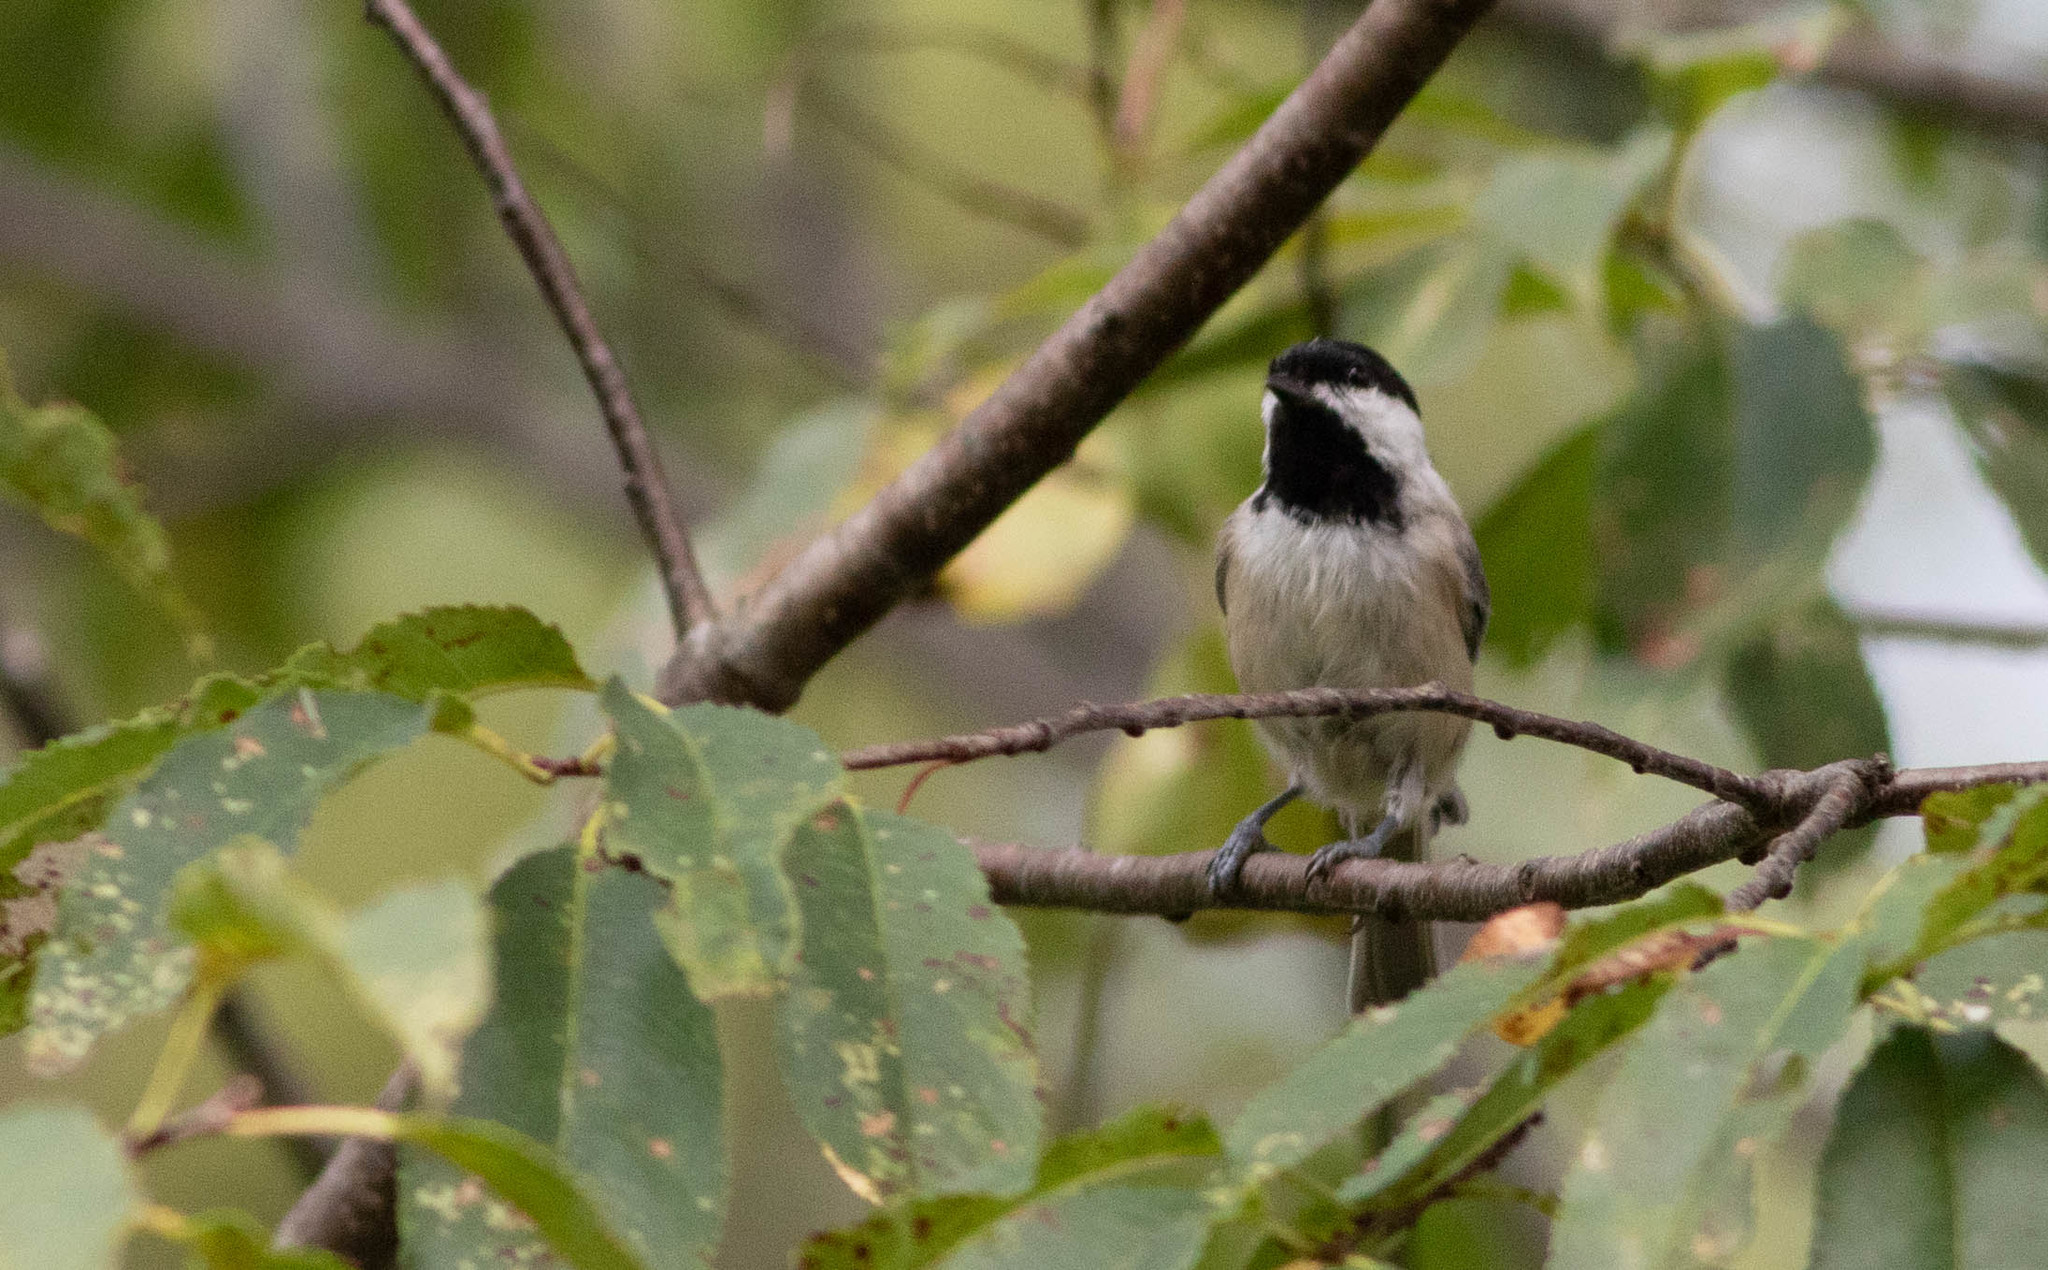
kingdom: Animalia
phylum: Chordata
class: Aves
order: Passeriformes
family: Paridae
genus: Poecile
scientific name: Poecile carolinensis
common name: Carolina chickadee
